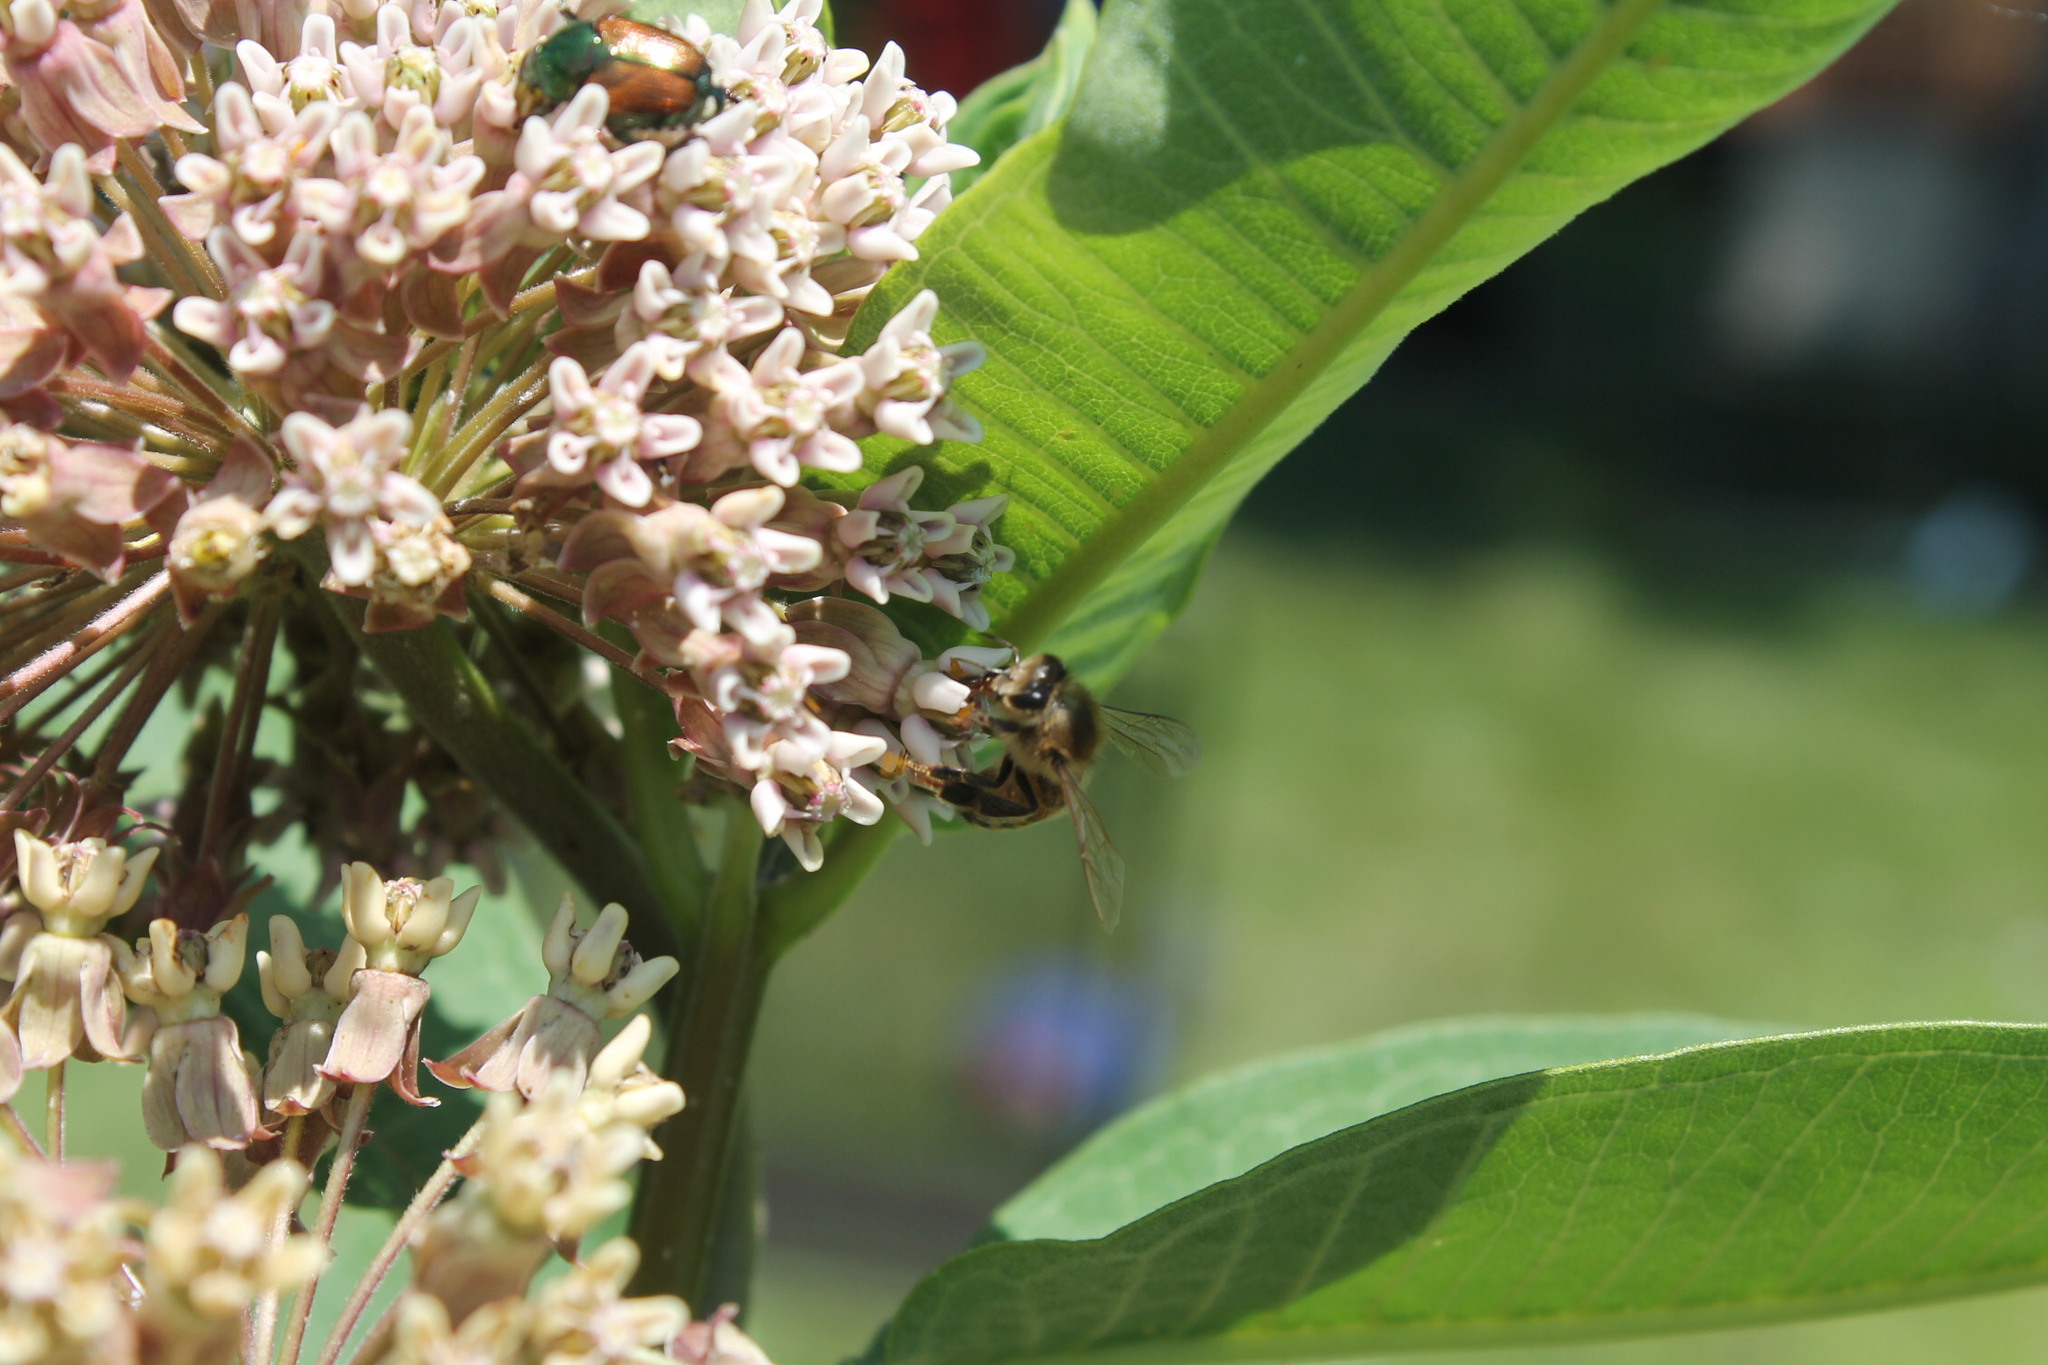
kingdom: Animalia
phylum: Arthropoda
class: Insecta
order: Hymenoptera
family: Apidae
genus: Apis
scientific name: Apis mellifera
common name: Honey bee
